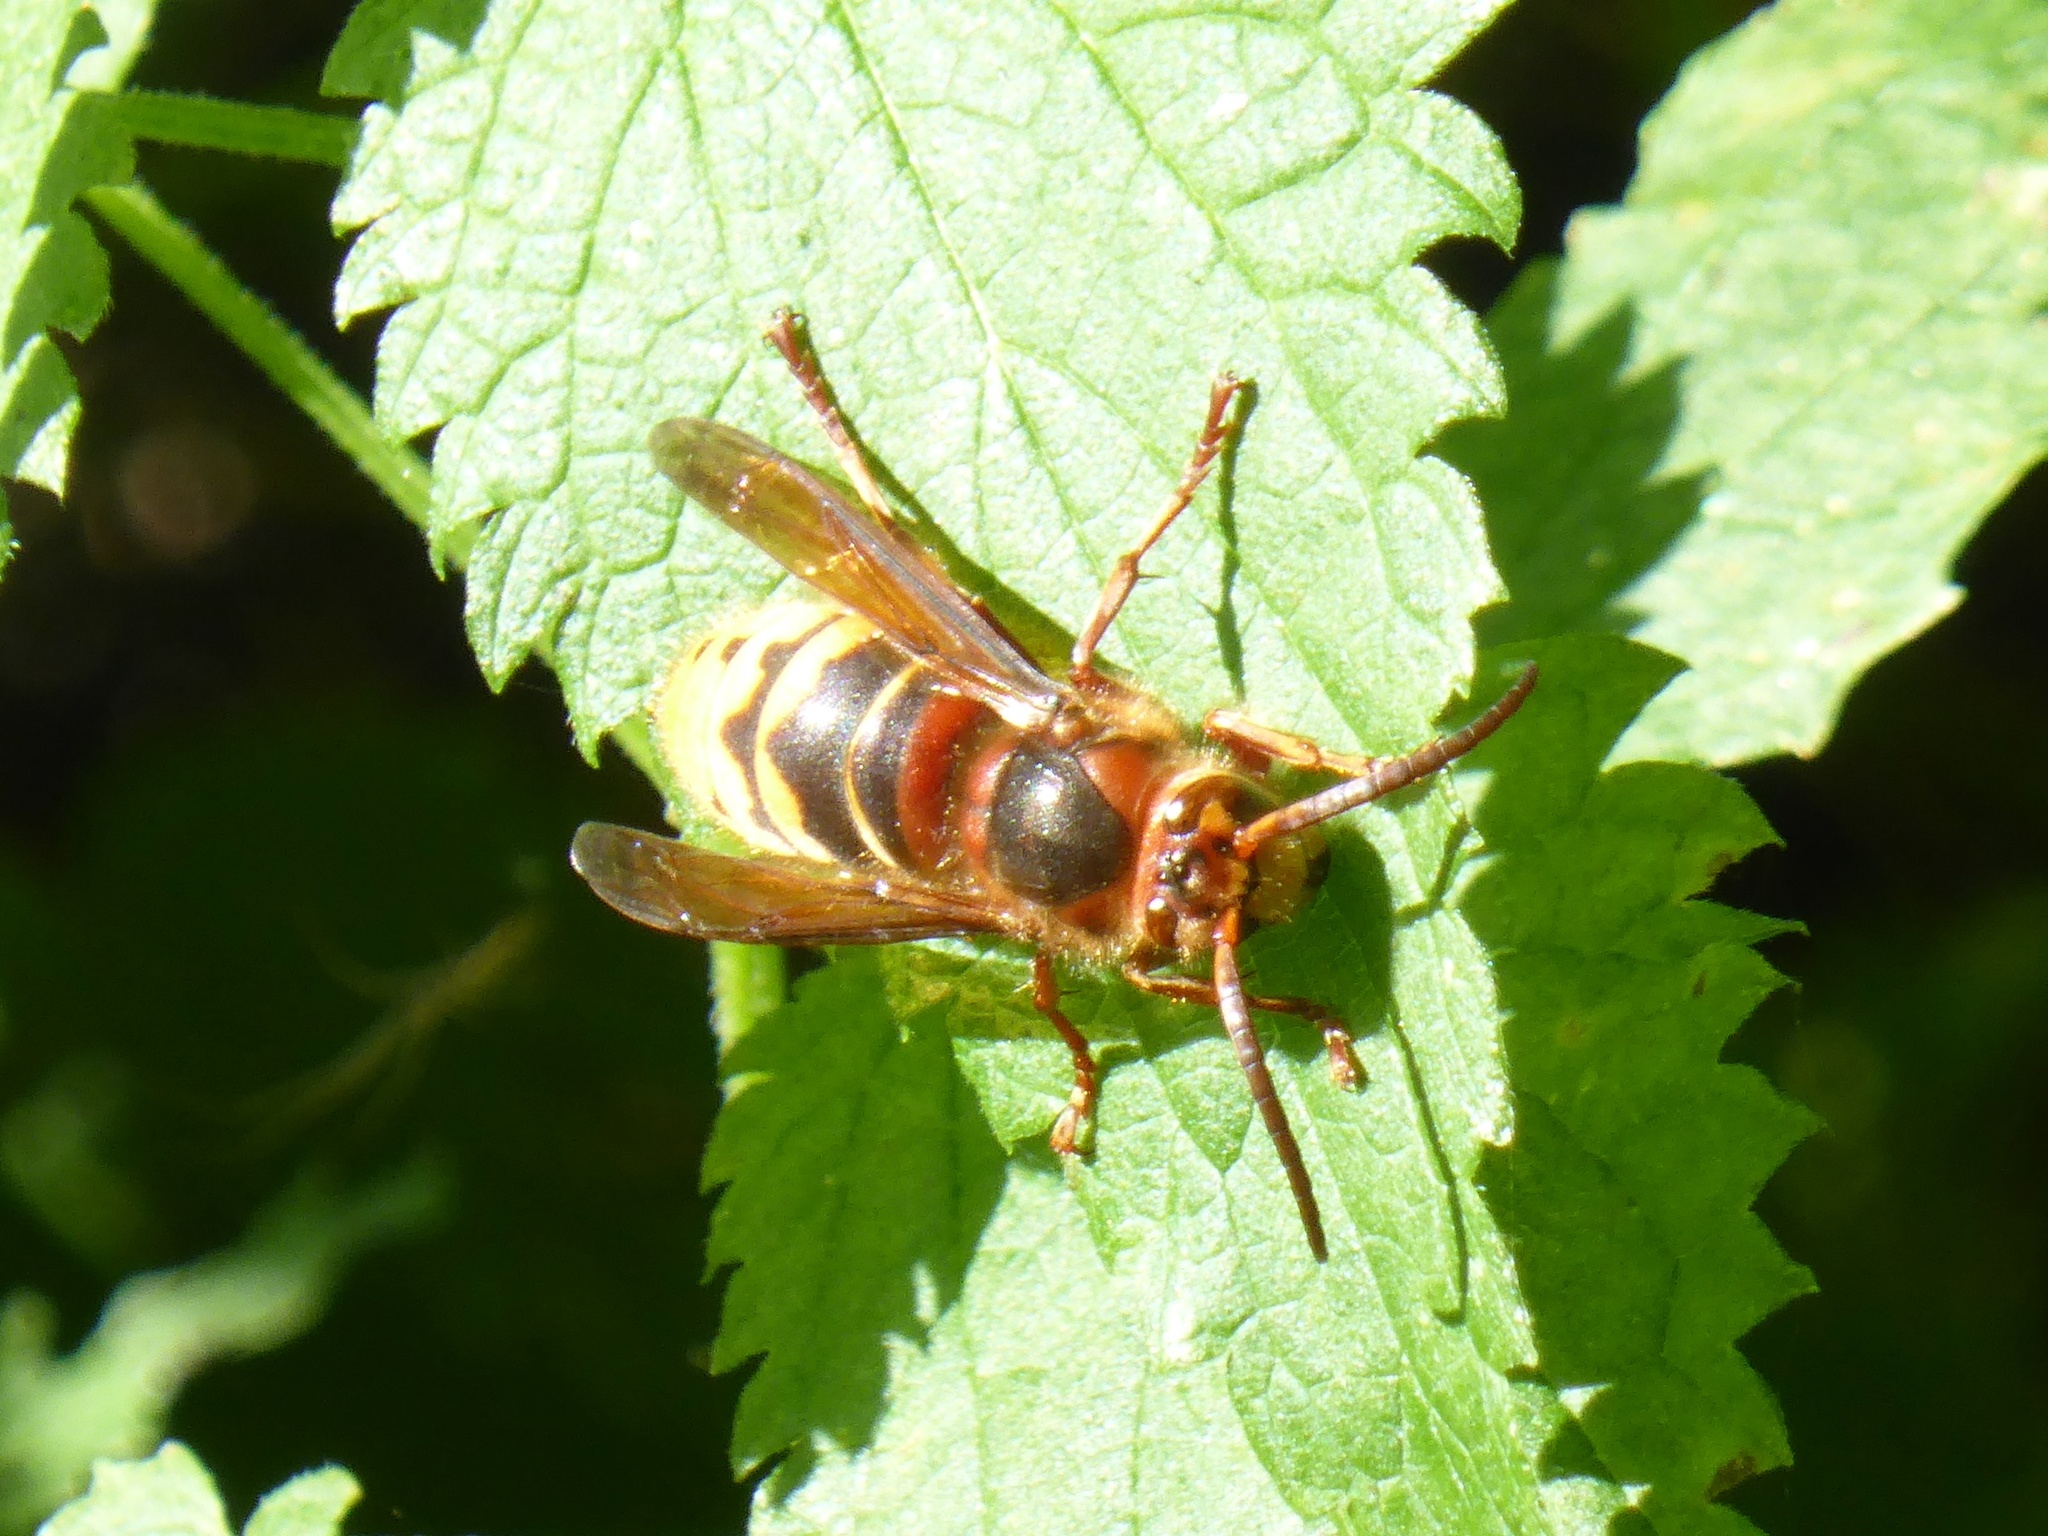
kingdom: Animalia
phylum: Arthropoda
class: Insecta
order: Hymenoptera
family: Vespidae
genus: Vespa
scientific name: Vespa crabro
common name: Hornet
